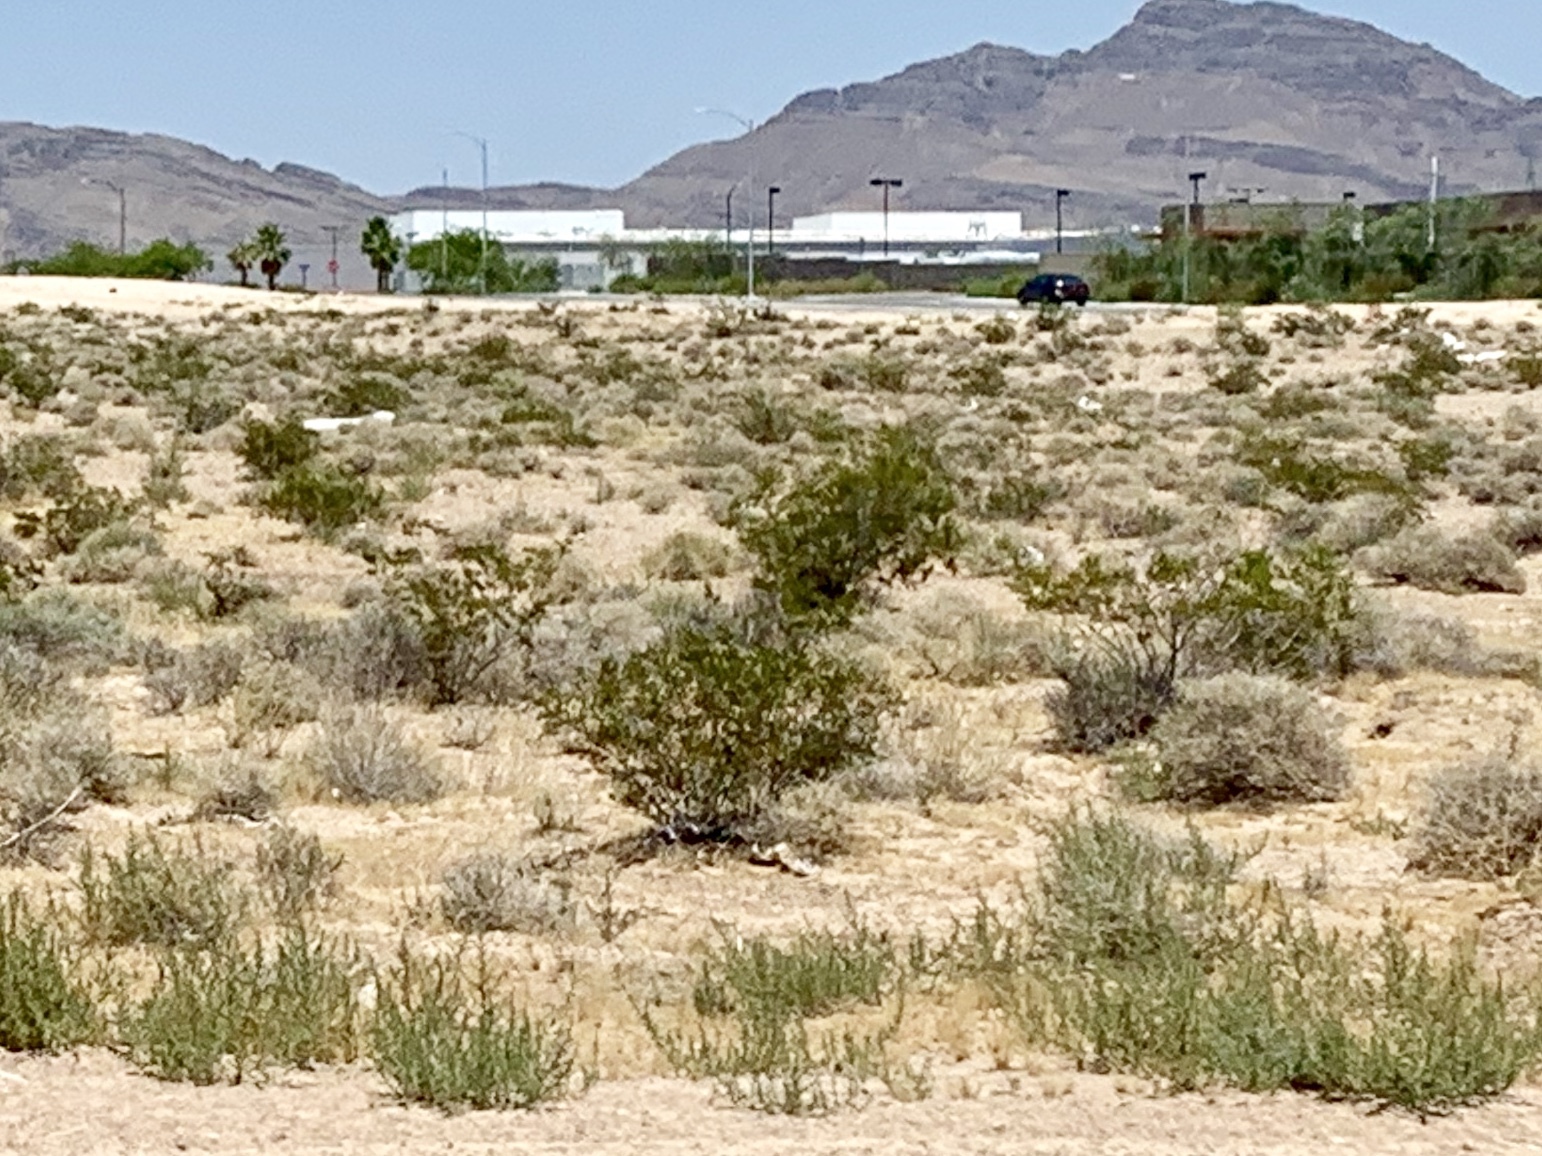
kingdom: Plantae
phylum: Tracheophyta
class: Magnoliopsida
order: Zygophyllales
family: Zygophyllaceae
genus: Larrea
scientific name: Larrea tridentata
